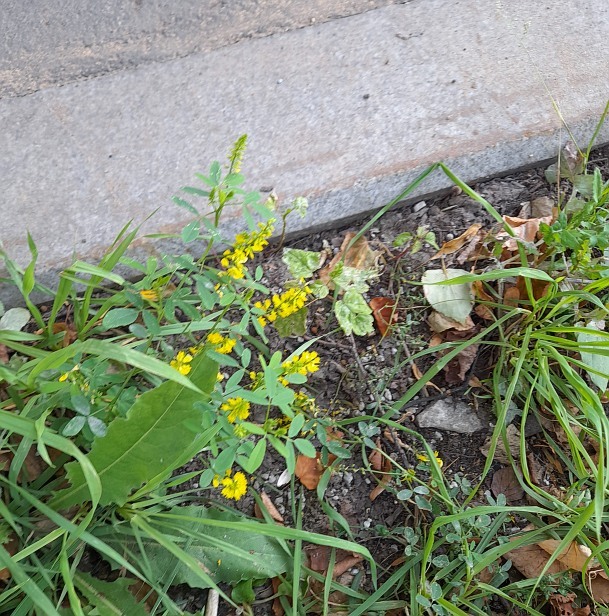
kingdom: Plantae
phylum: Tracheophyta
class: Magnoliopsida
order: Fabales
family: Fabaceae
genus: Melilotus
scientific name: Melilotus officinalis
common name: Sweetclover
